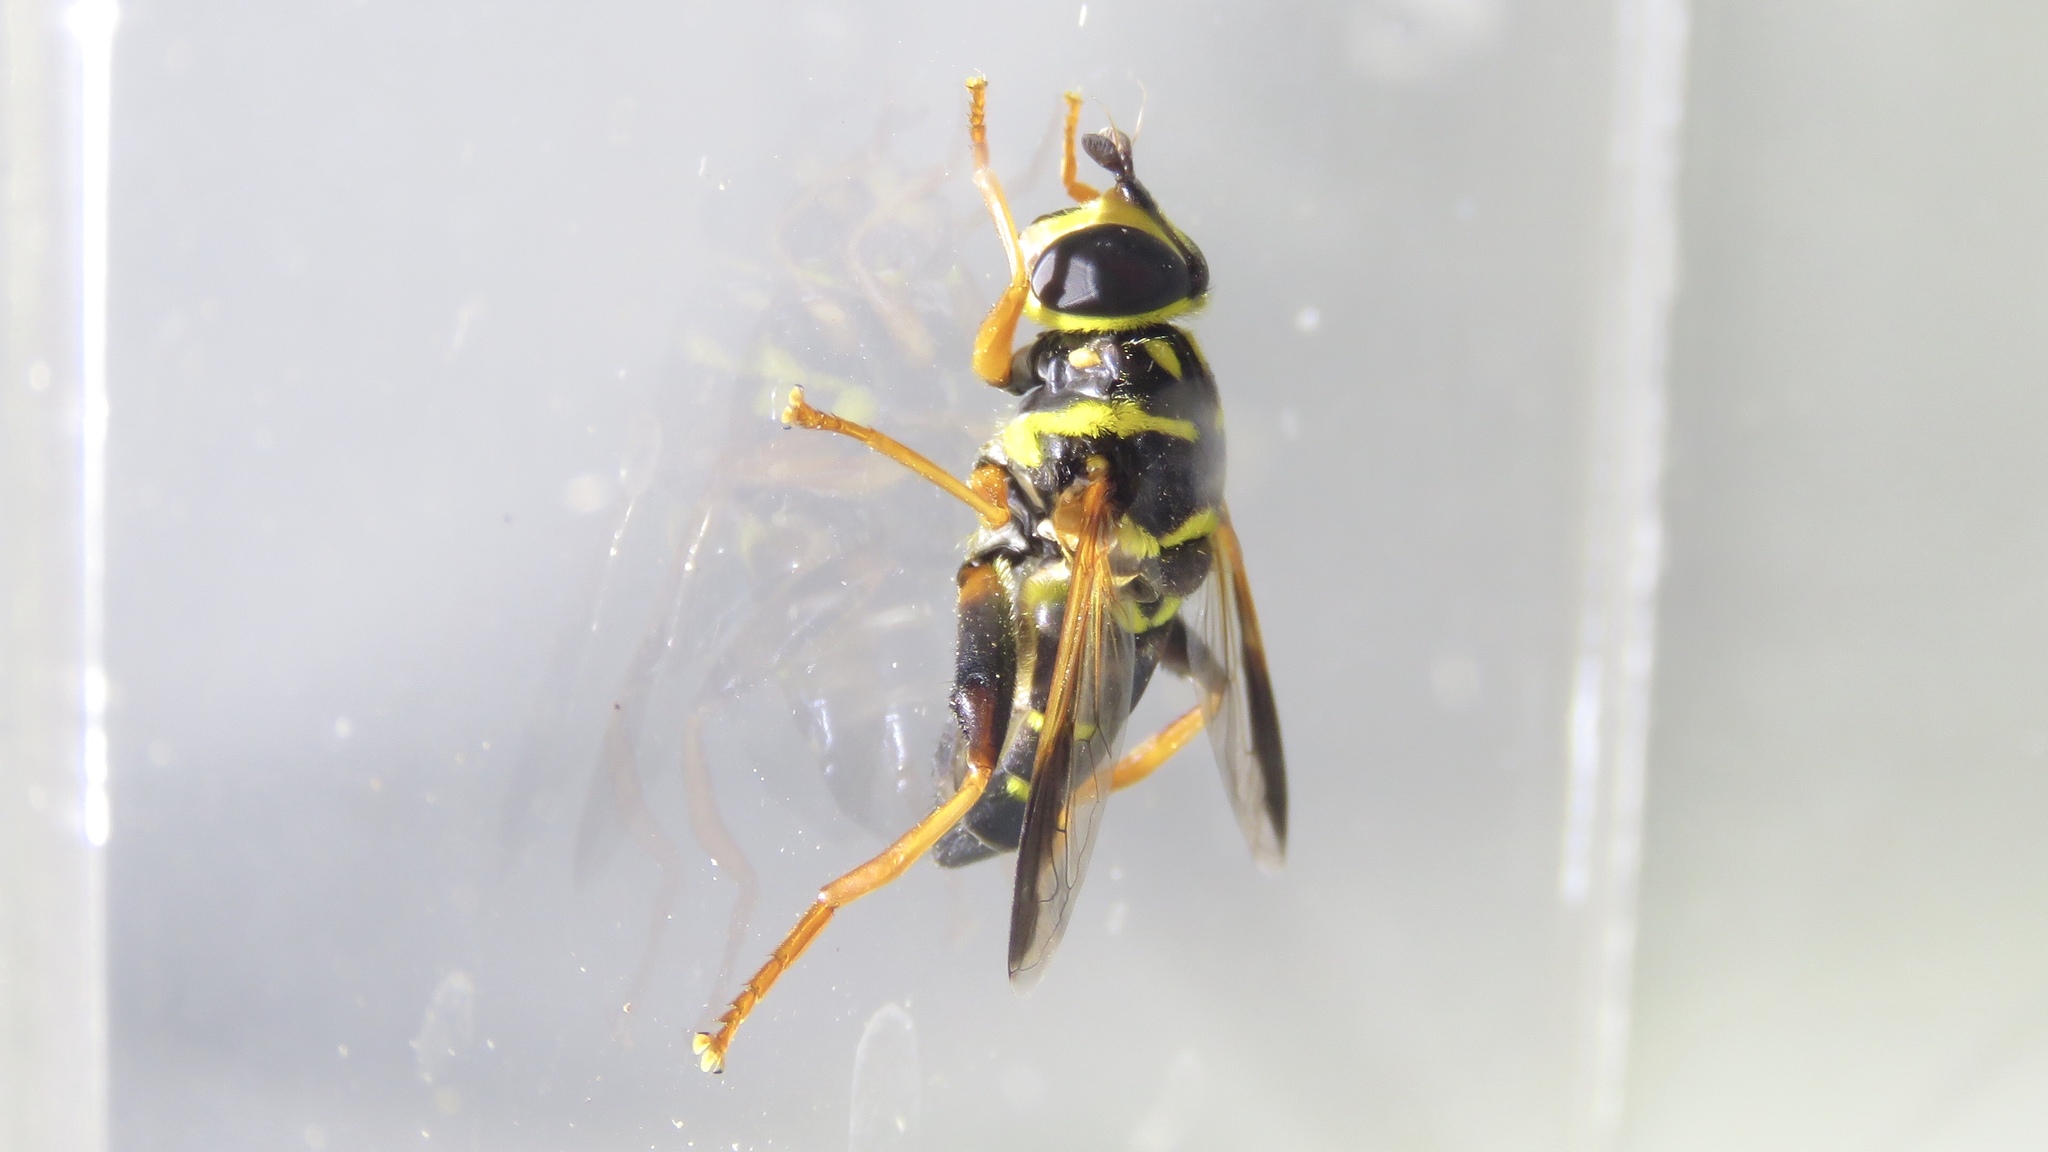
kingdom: Animalia
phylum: Arthropoda
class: Insecta
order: Diptera
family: Syrphidae
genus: Meromacrus
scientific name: Meromacrus acutus
